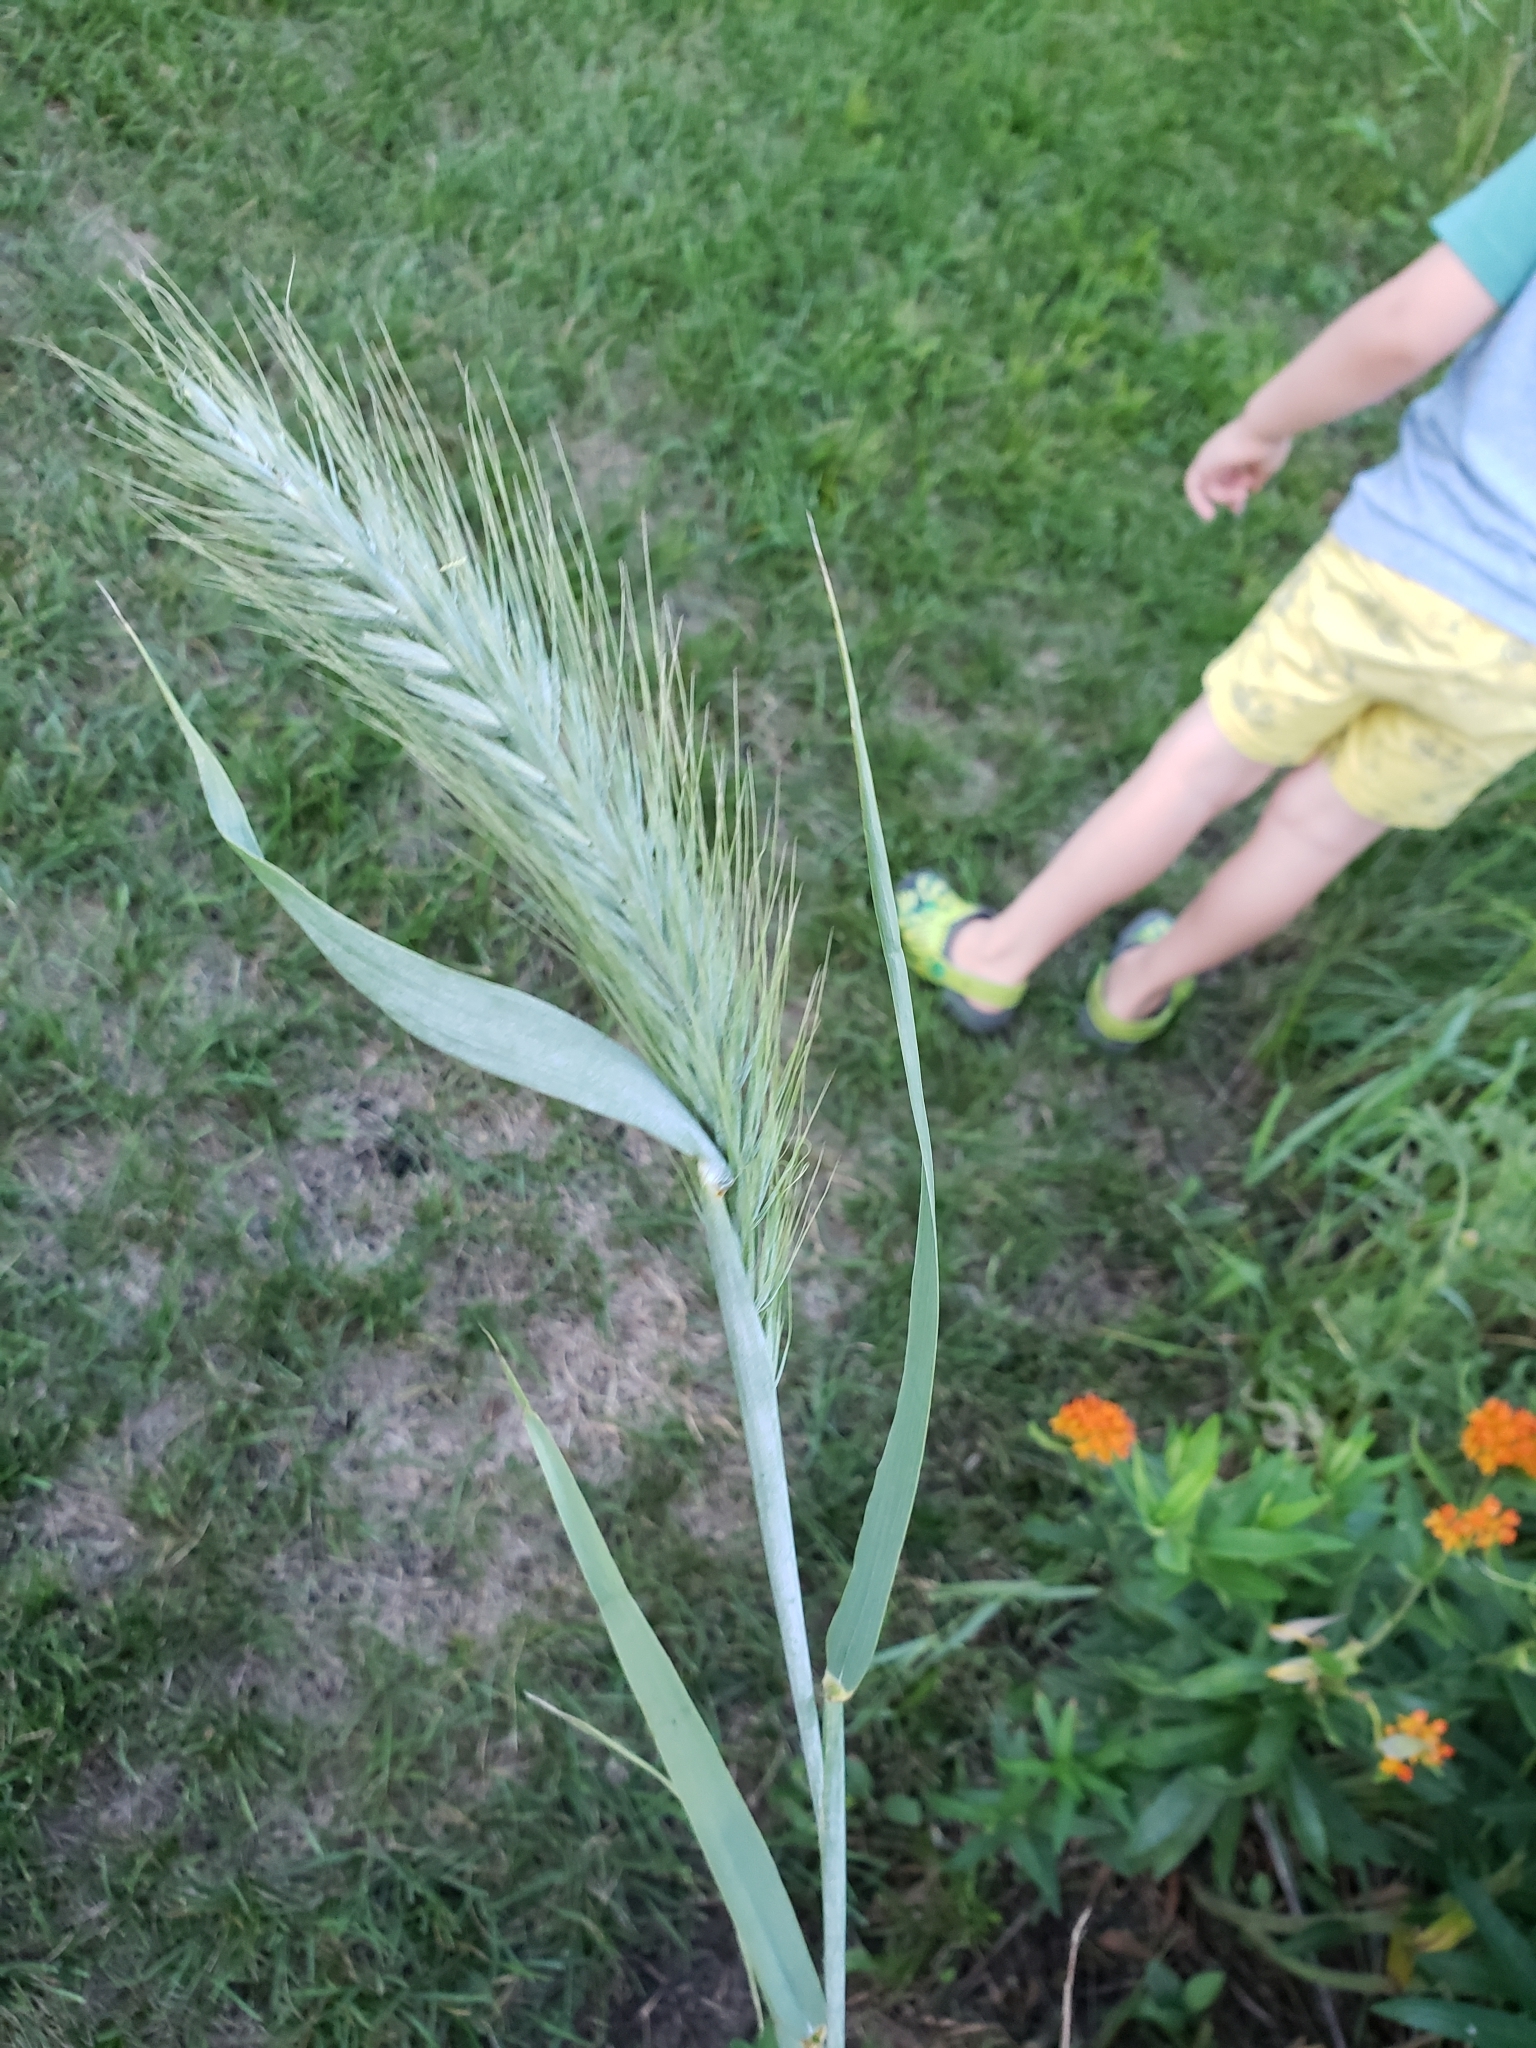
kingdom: Plantae
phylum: Tracheophyta
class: Liliopsida
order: Poales
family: Poaceae
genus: Elymus
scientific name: Elymus canadensis
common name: Canada wild rye
